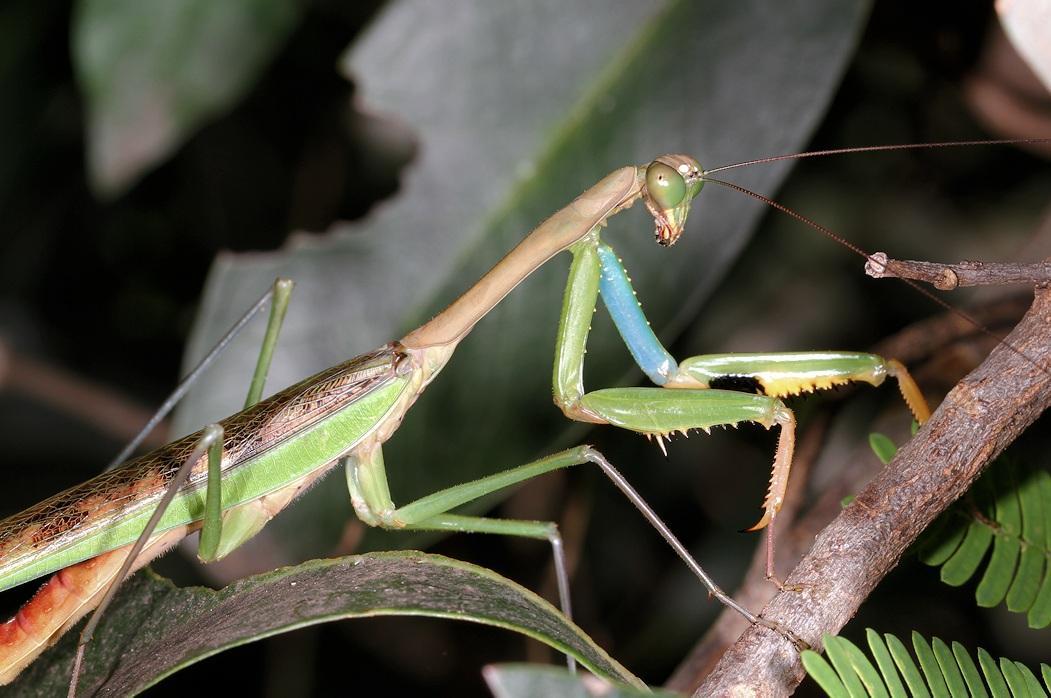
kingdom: Animalia
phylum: Arthropoda
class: Insecta
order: Mantodea
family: Mantidae
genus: Polyspilota
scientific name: Polyspilota aeruginosa
